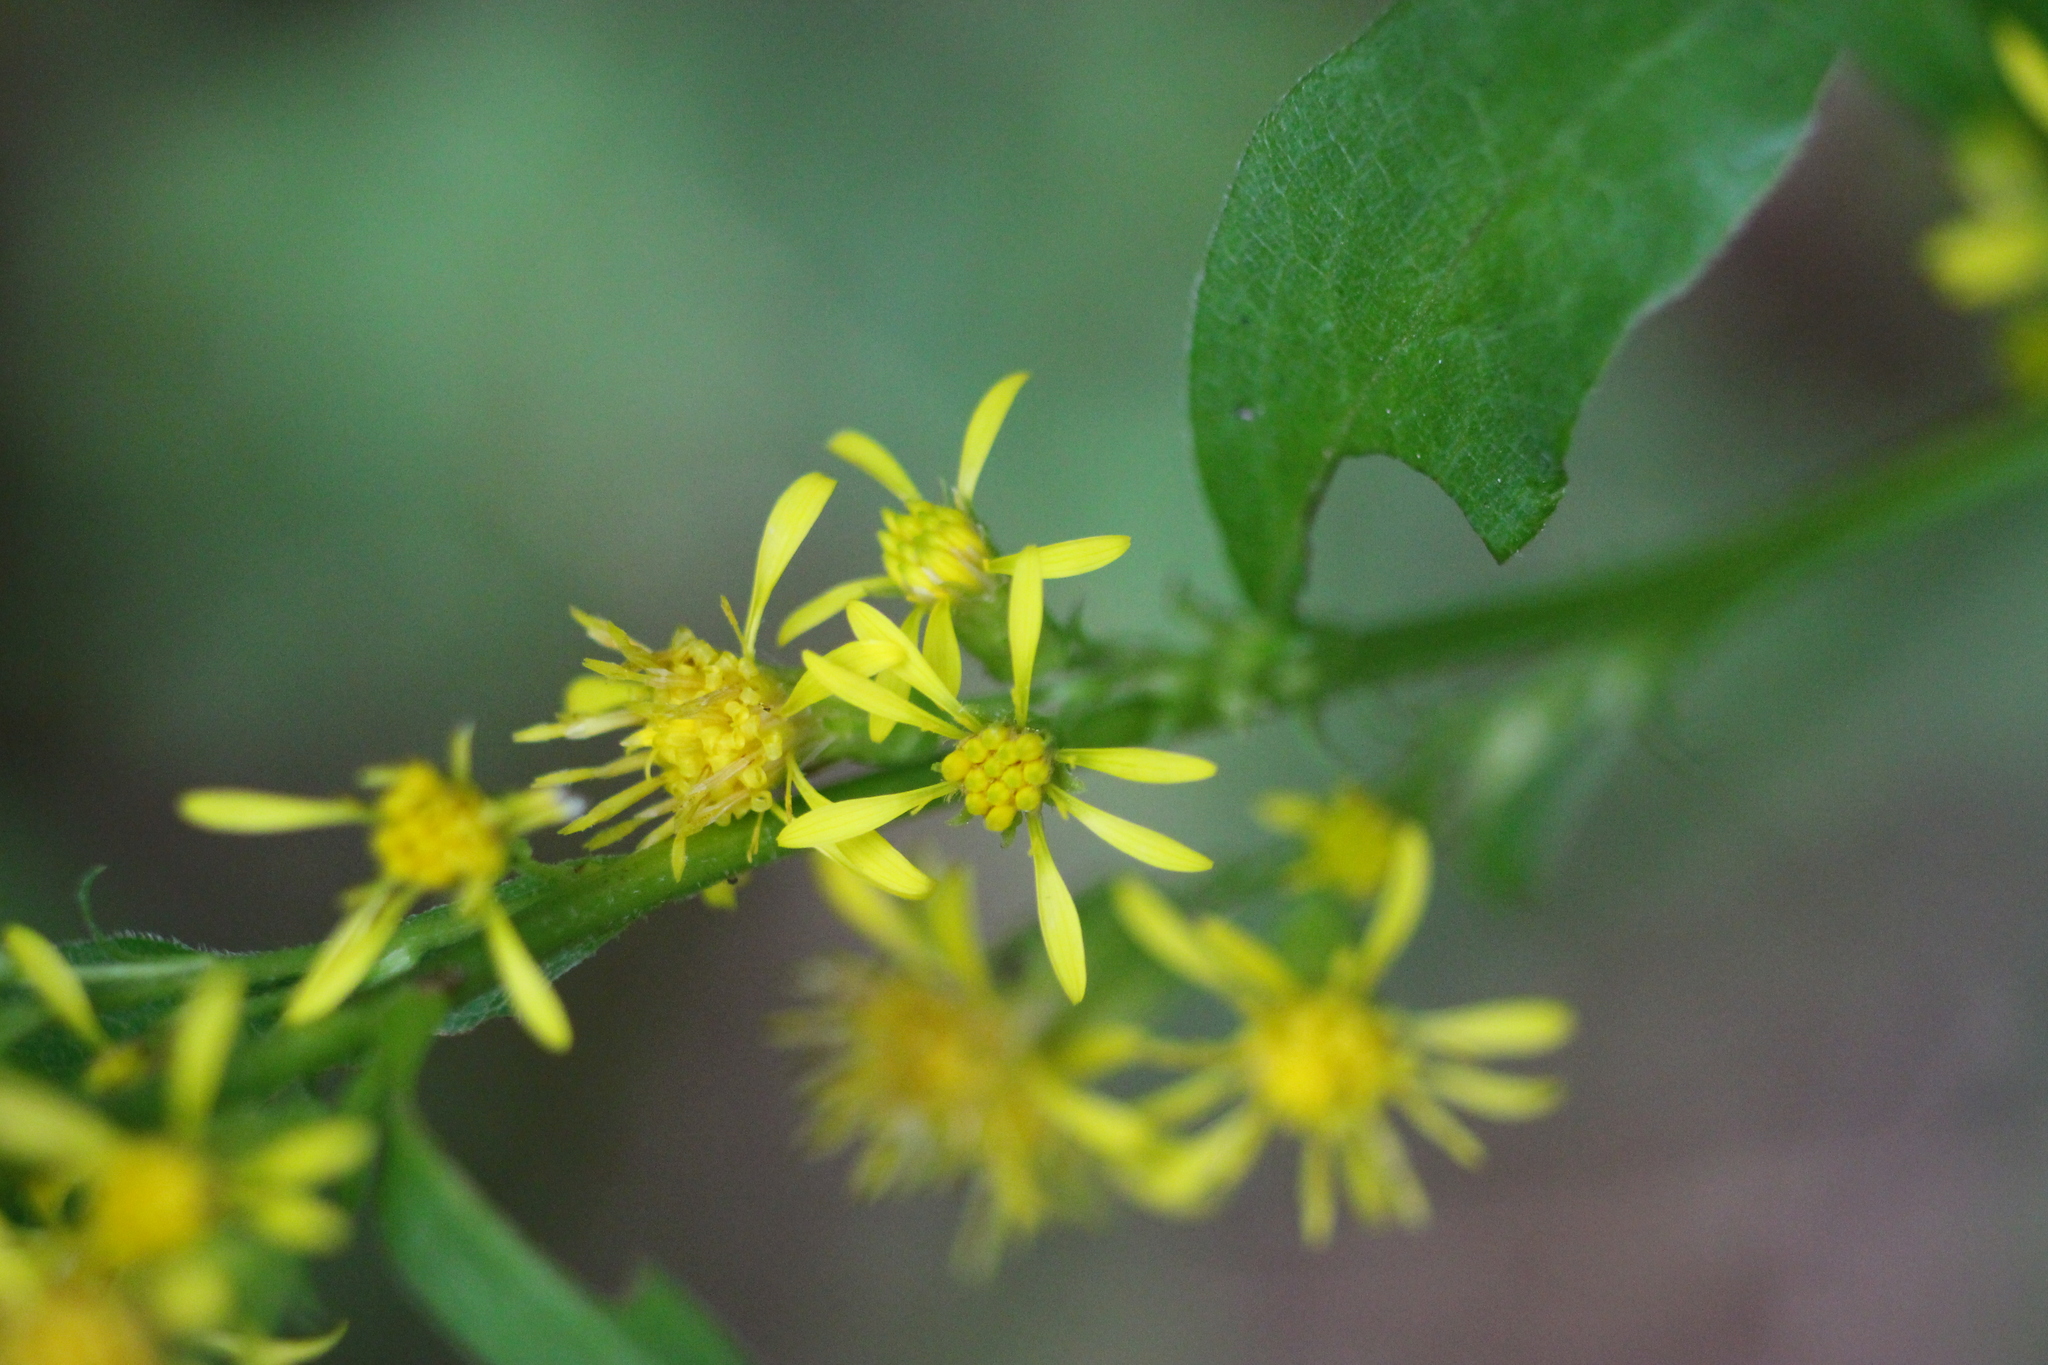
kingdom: Plantae
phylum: Tracheophyta
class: Magnoliopsida
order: Asterales
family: Asteraceae
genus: Solidago
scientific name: Solidago virgaurea
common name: Goldenrod
